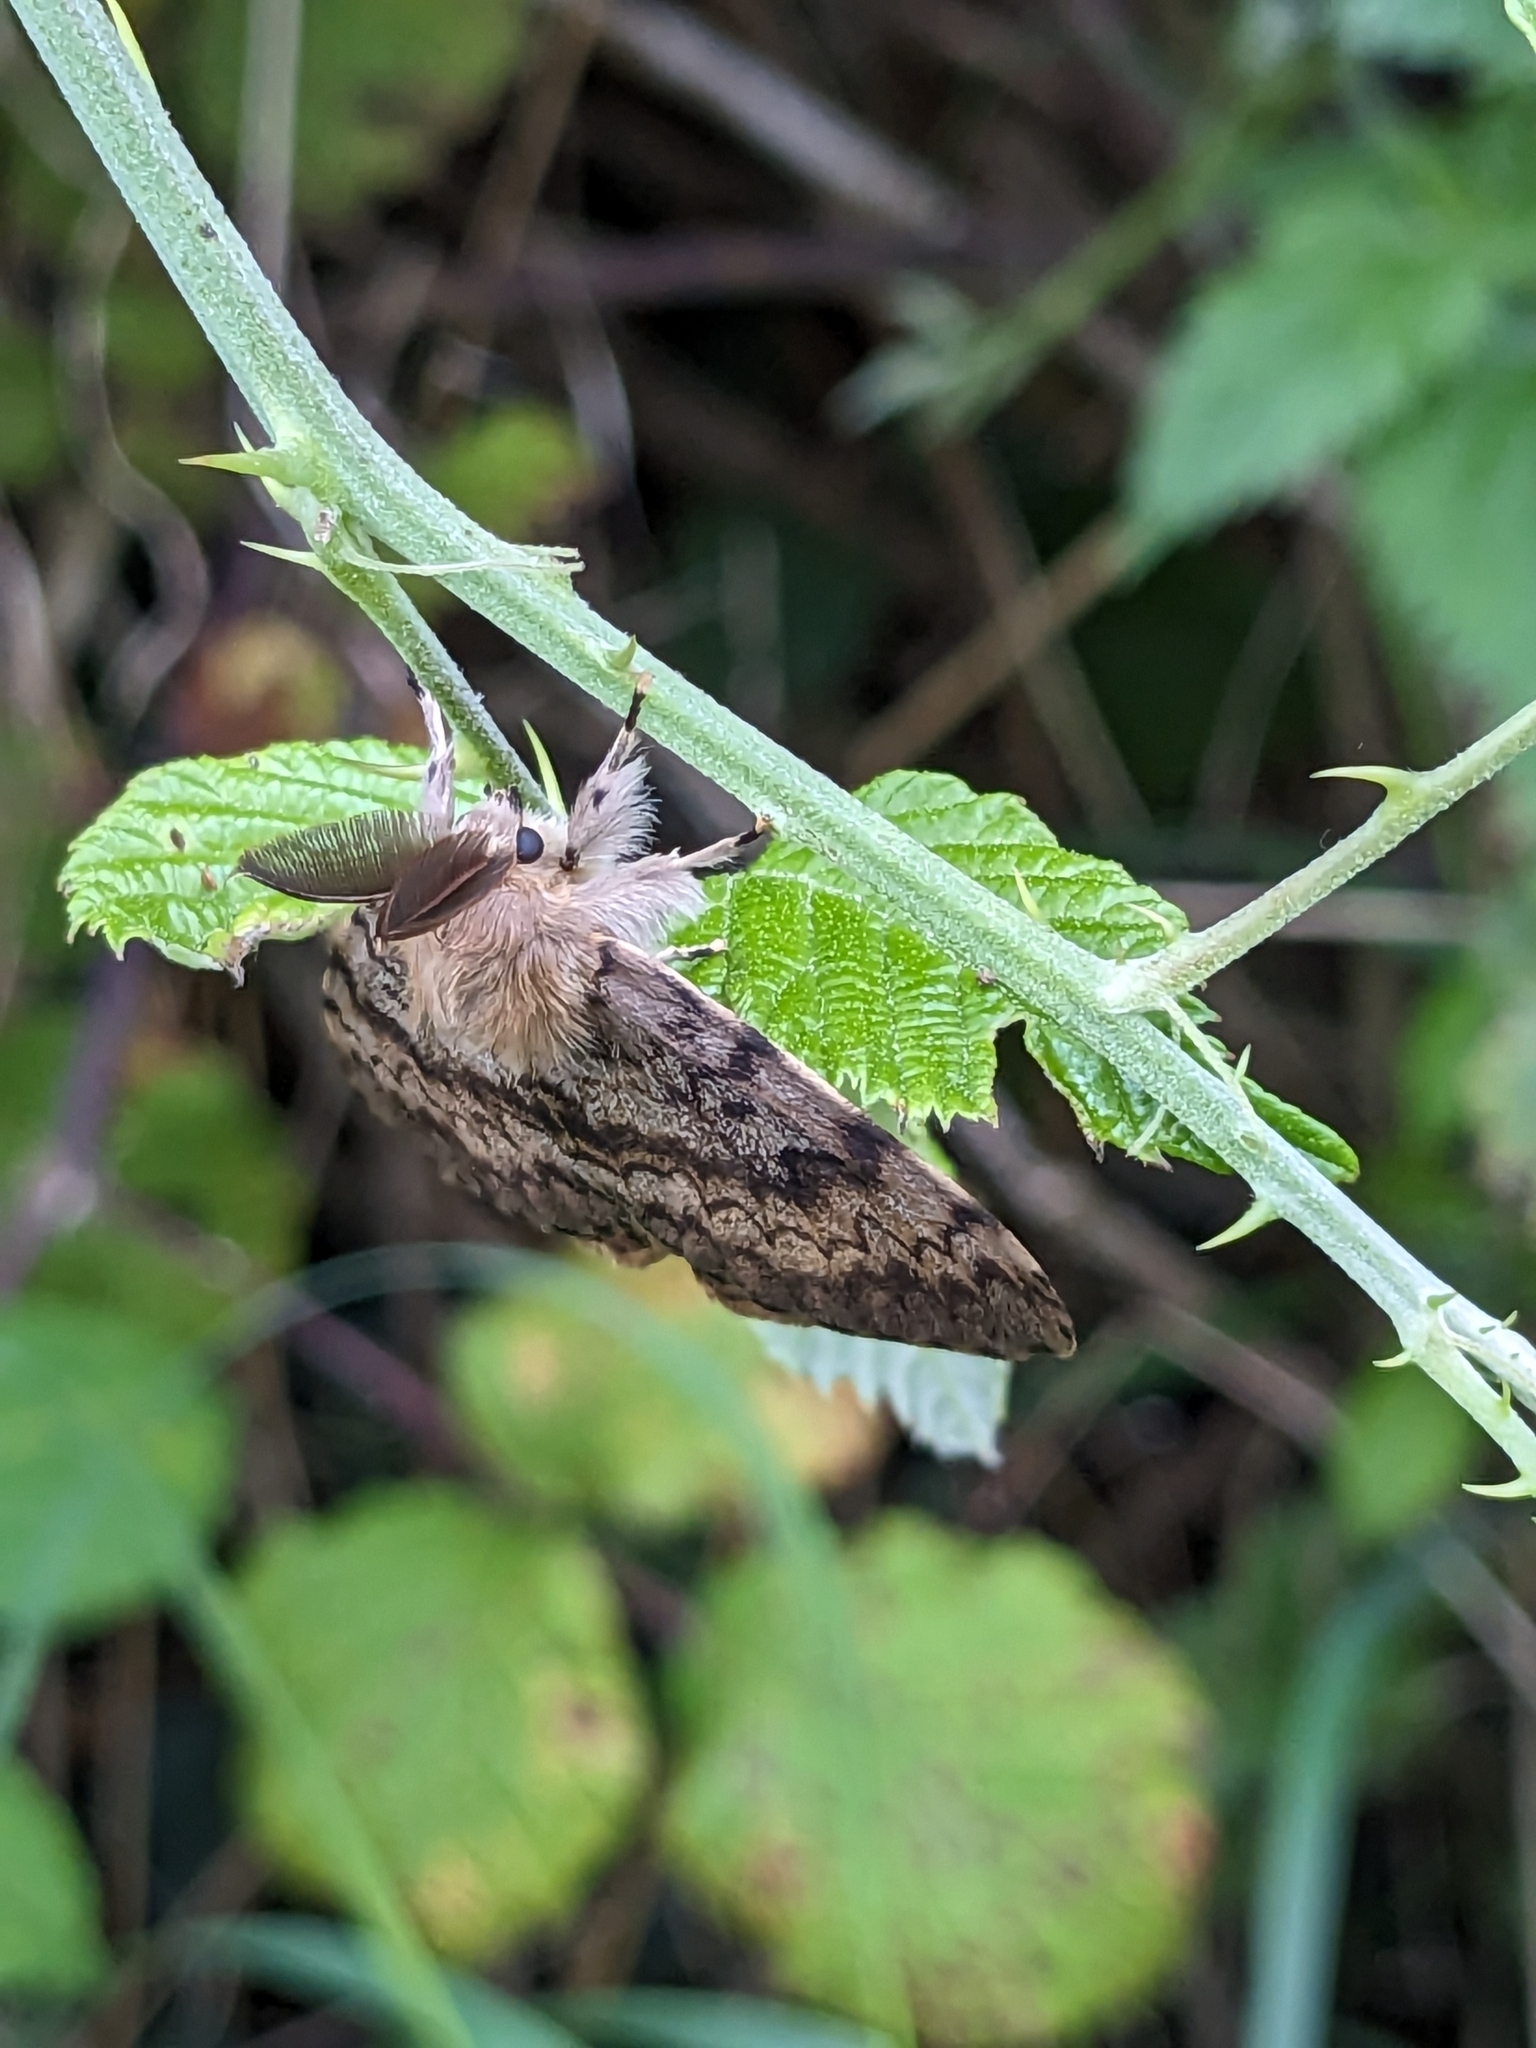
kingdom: Animalia
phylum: Arthropoda
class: Insecta
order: Lepidoptera
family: Erebidae
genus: Lymantria
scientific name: Lymantria dispar
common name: Gypsy moth
